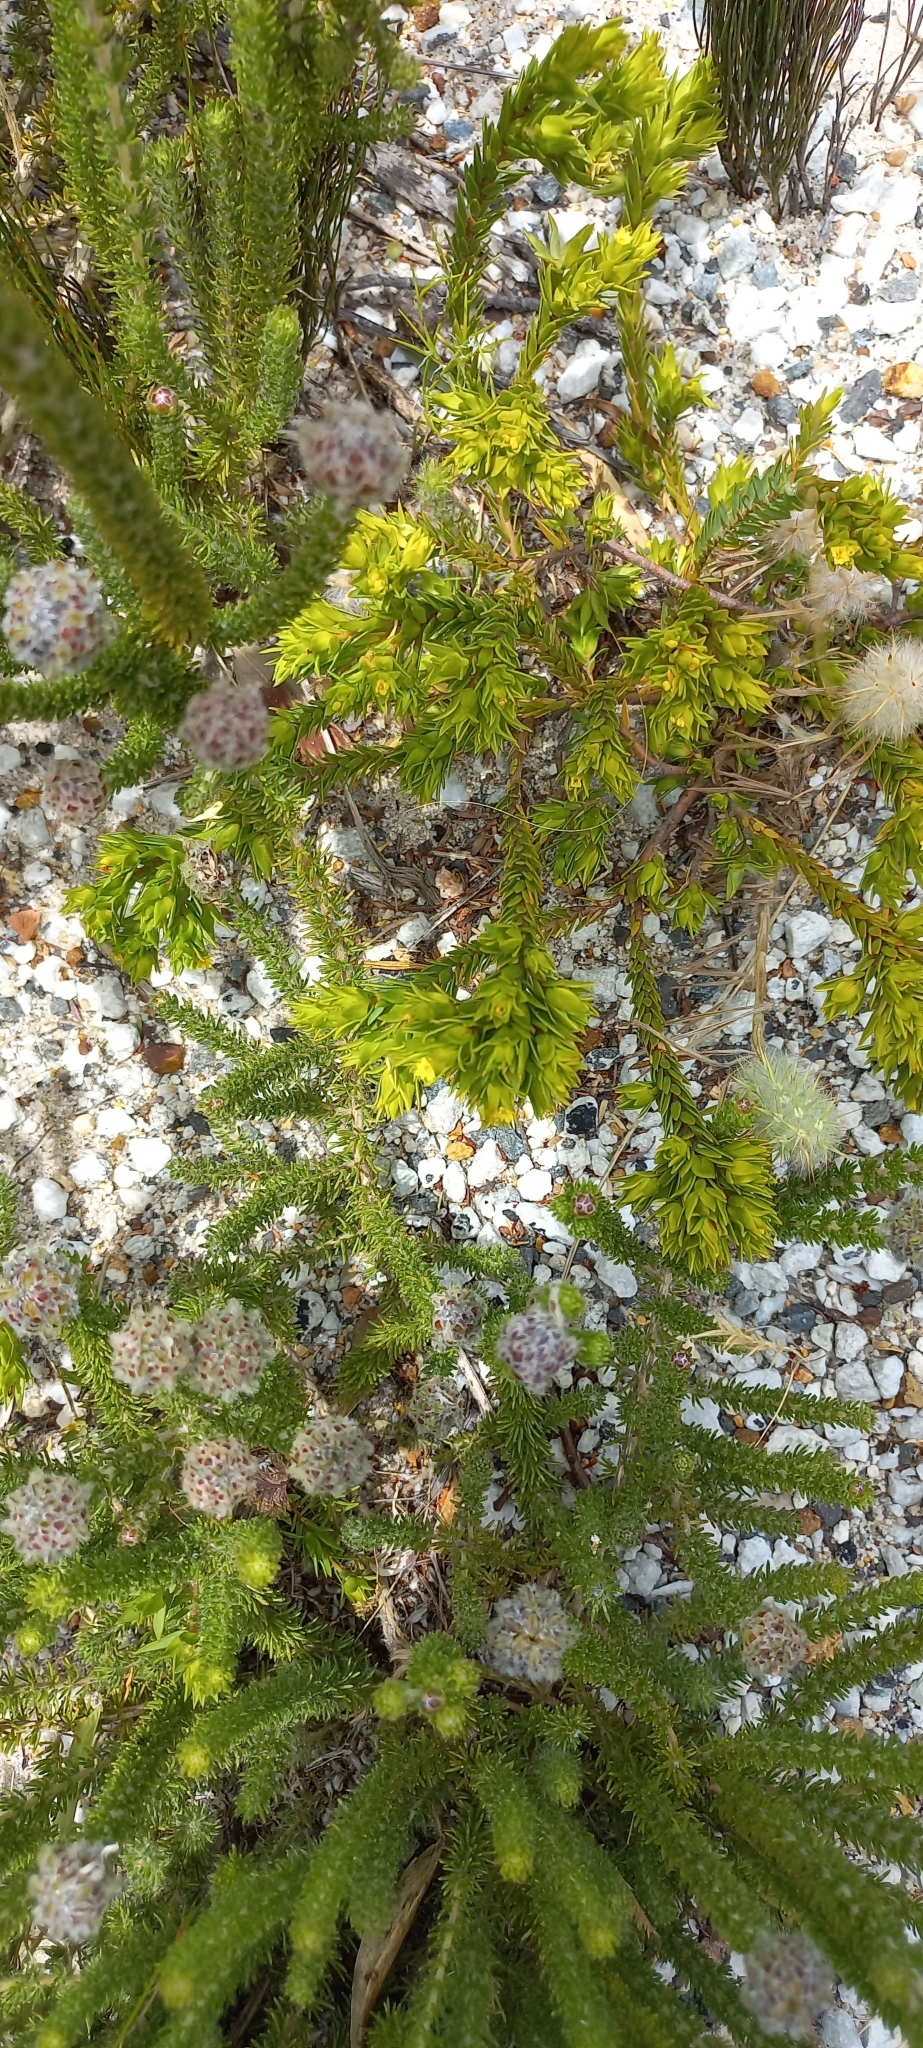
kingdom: Plantae
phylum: Tracheophyta
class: Magnoliopsida
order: Malvales
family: Thymelaeaceae
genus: Gnidia
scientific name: Gnidia juniperifolia
